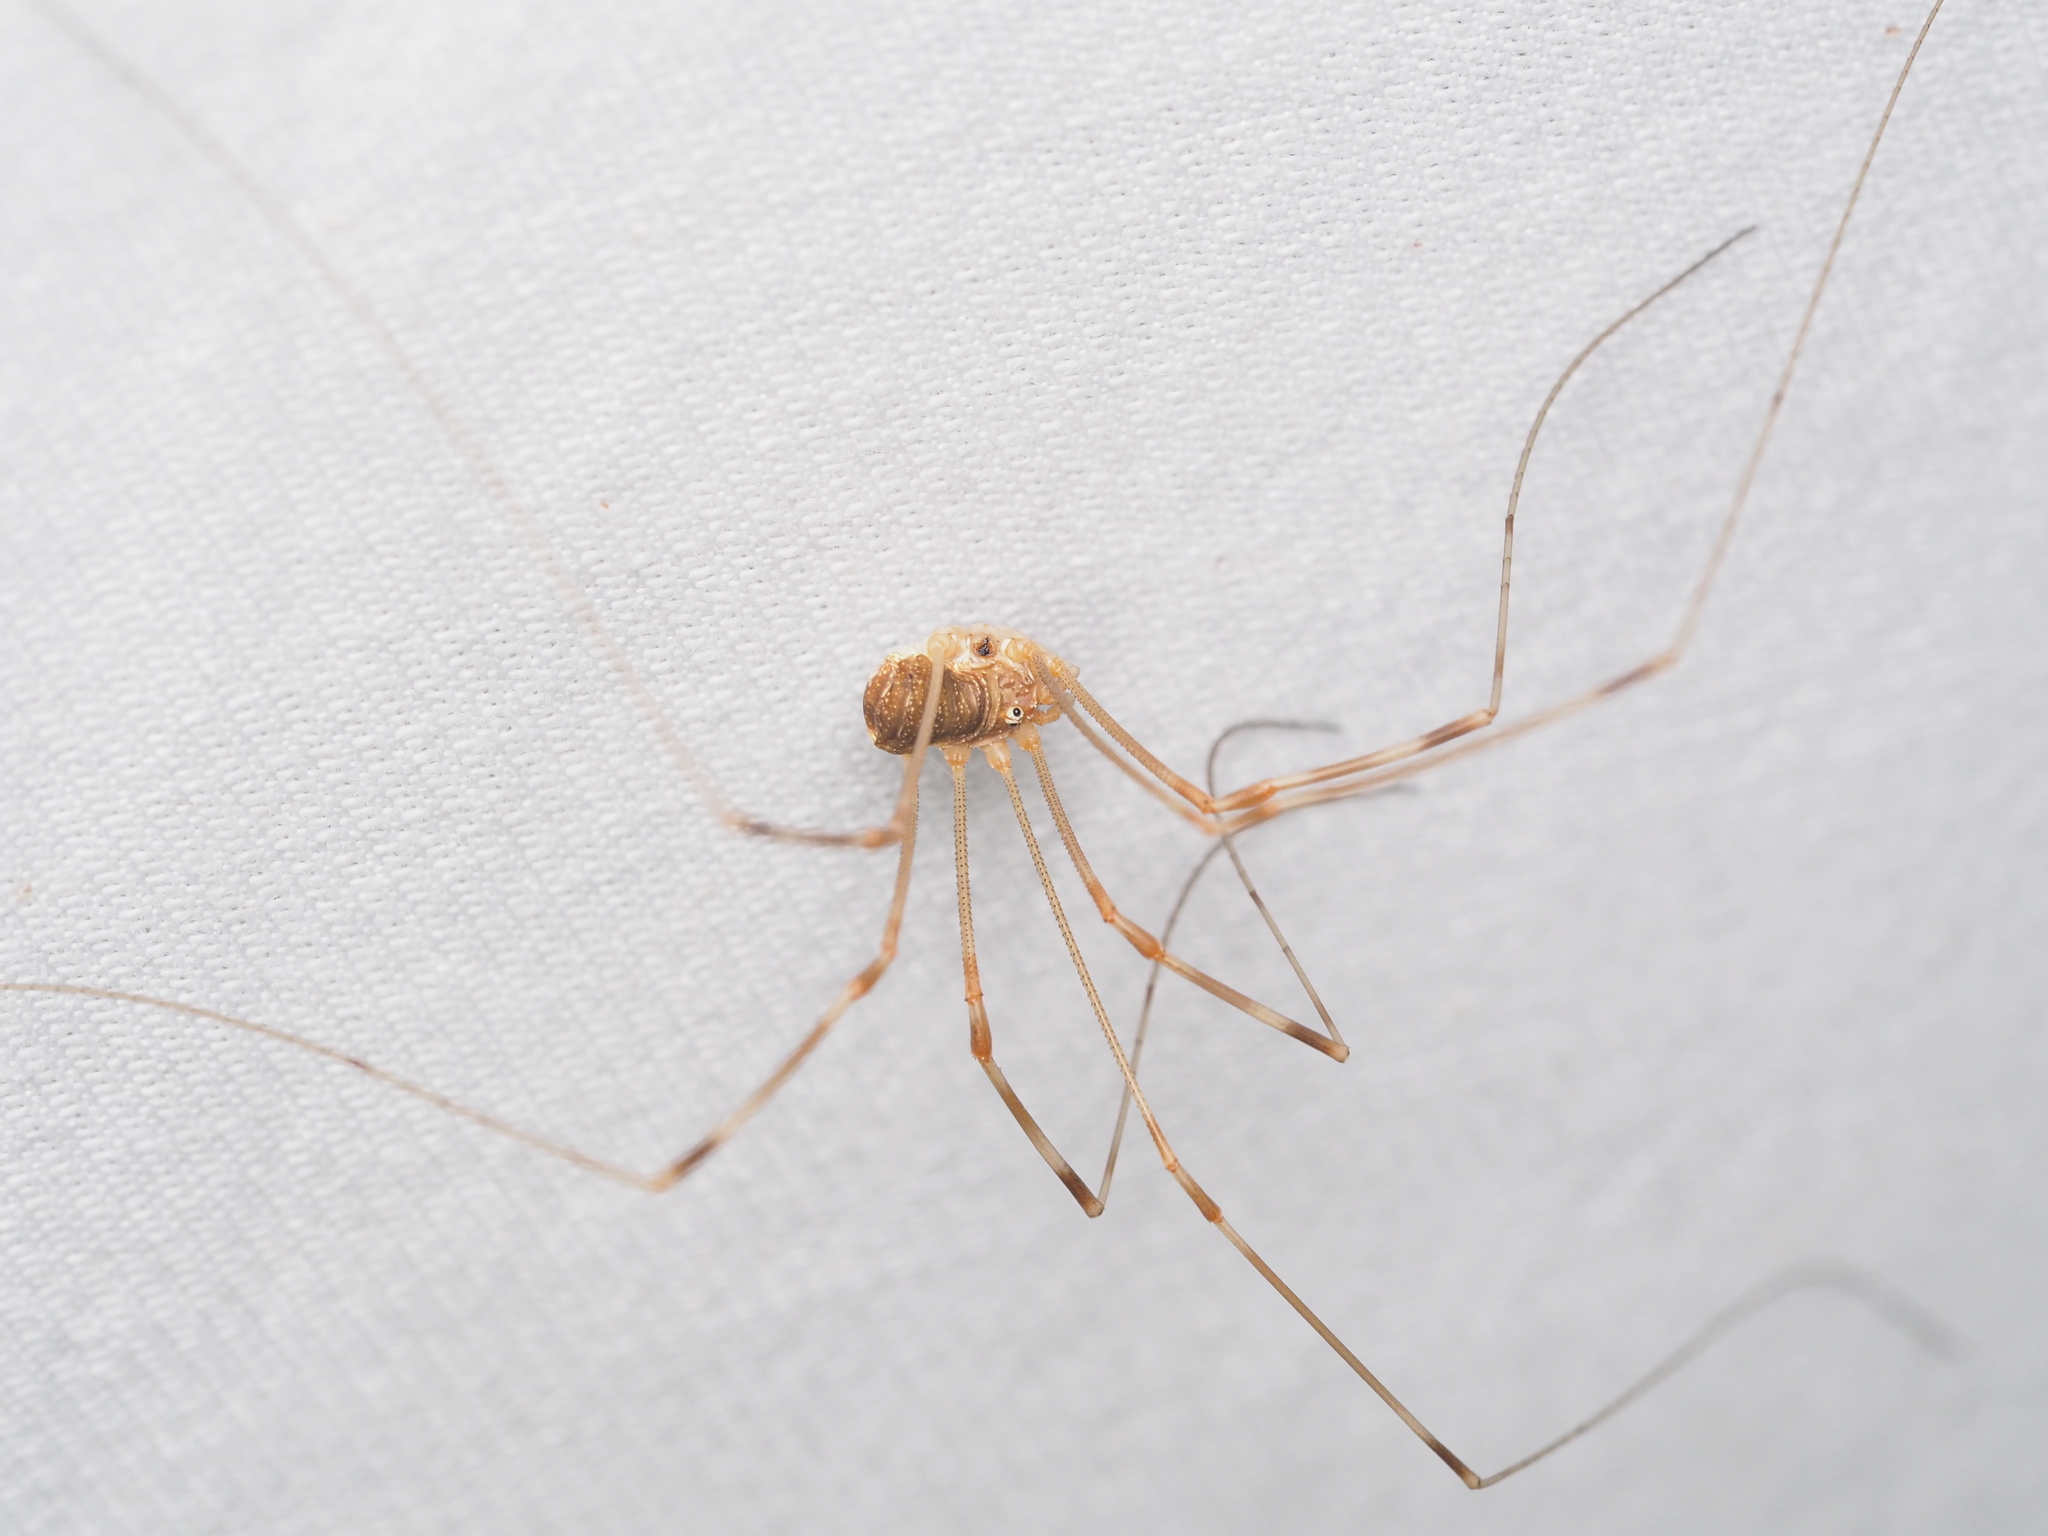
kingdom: Animalia
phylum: Arthropoda
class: Arachnida
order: Opiliones
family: Phalangiidae
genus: Opilio
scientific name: Opilio canestrinii
